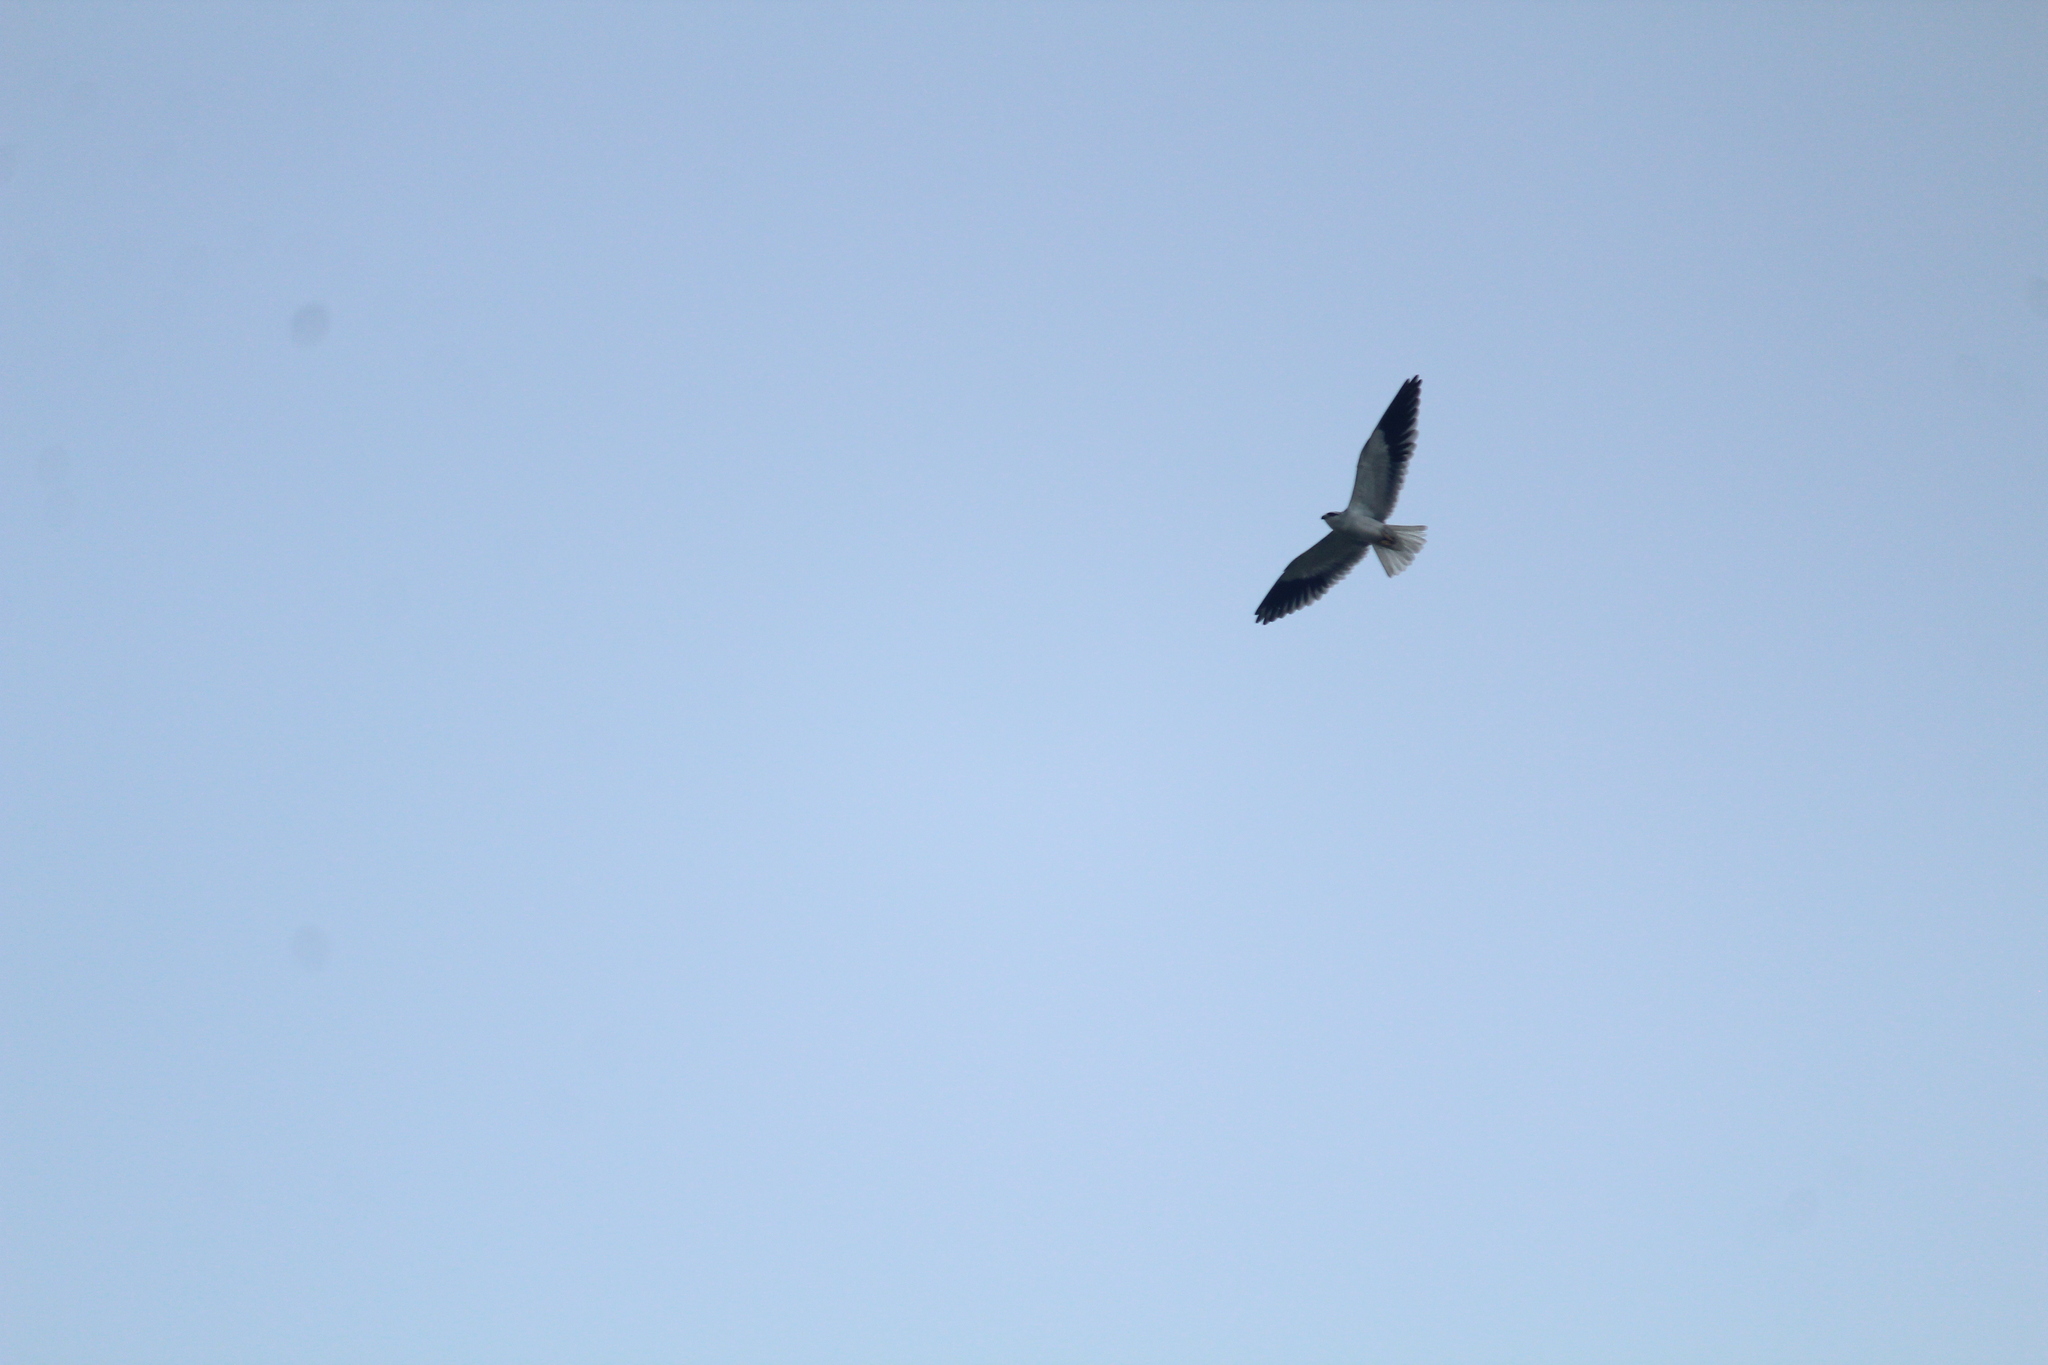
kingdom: Animalia
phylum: Chordata
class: Aves
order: Accipitriformes
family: Accipitridae
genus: Elanus
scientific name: Elanus caeruleus
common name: Black-winged kite
